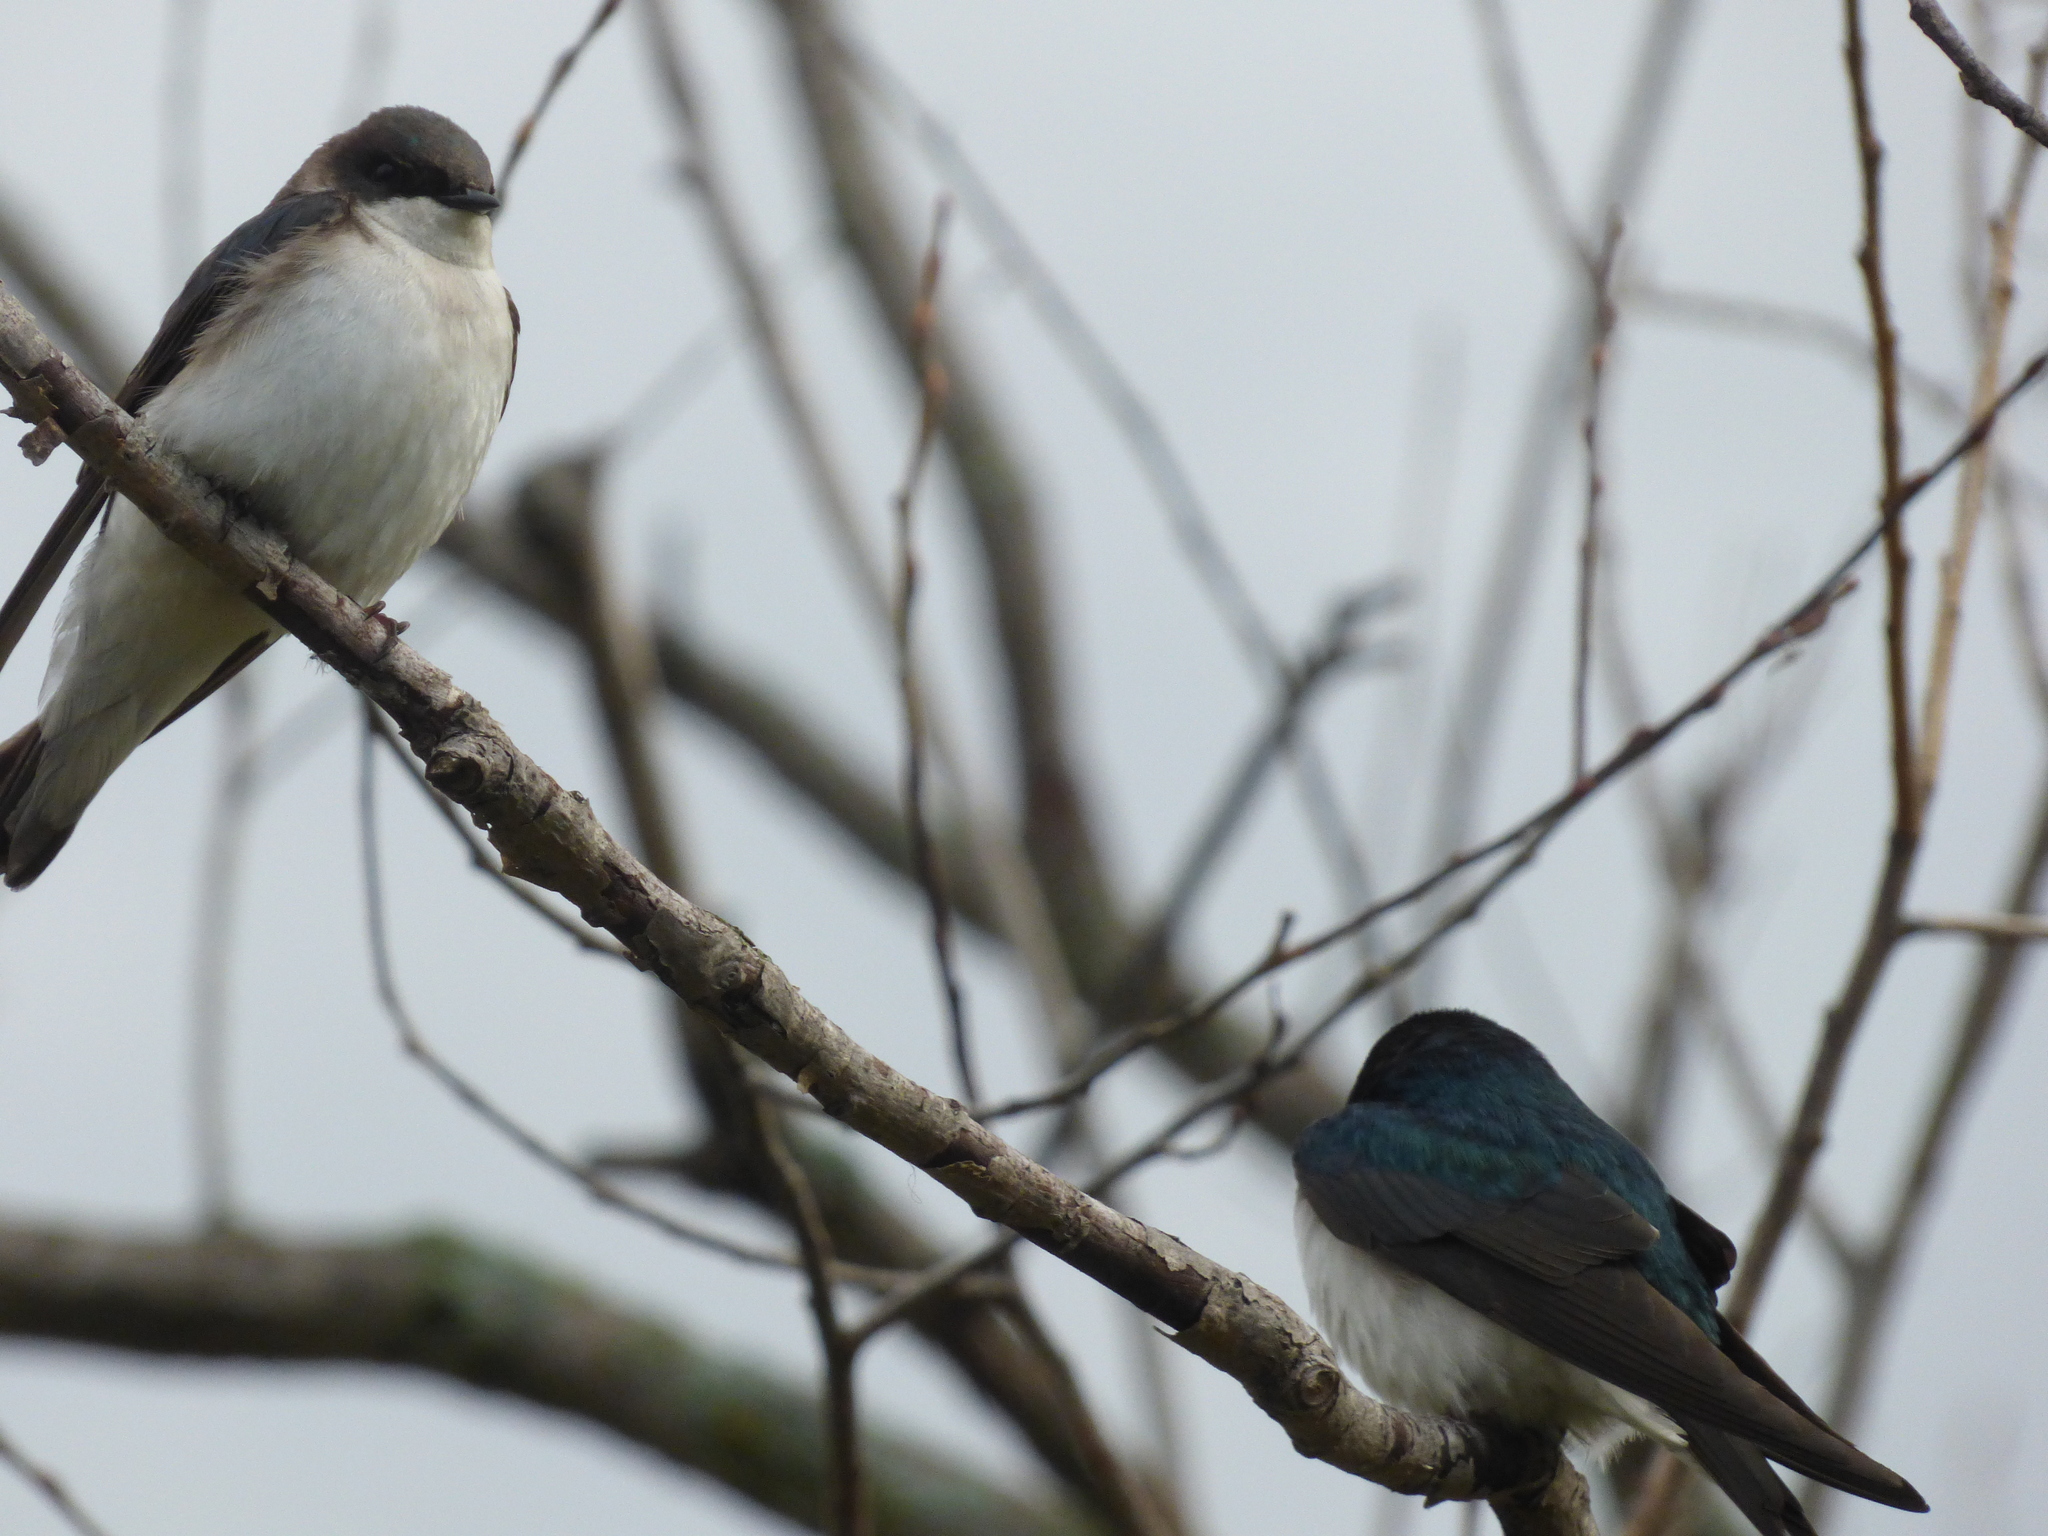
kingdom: Animalia
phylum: Chordata
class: Aves
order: Passeriformes
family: Hirundinidae
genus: Tachycineta
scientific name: Tachycineta bicolor
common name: Tree swallow
